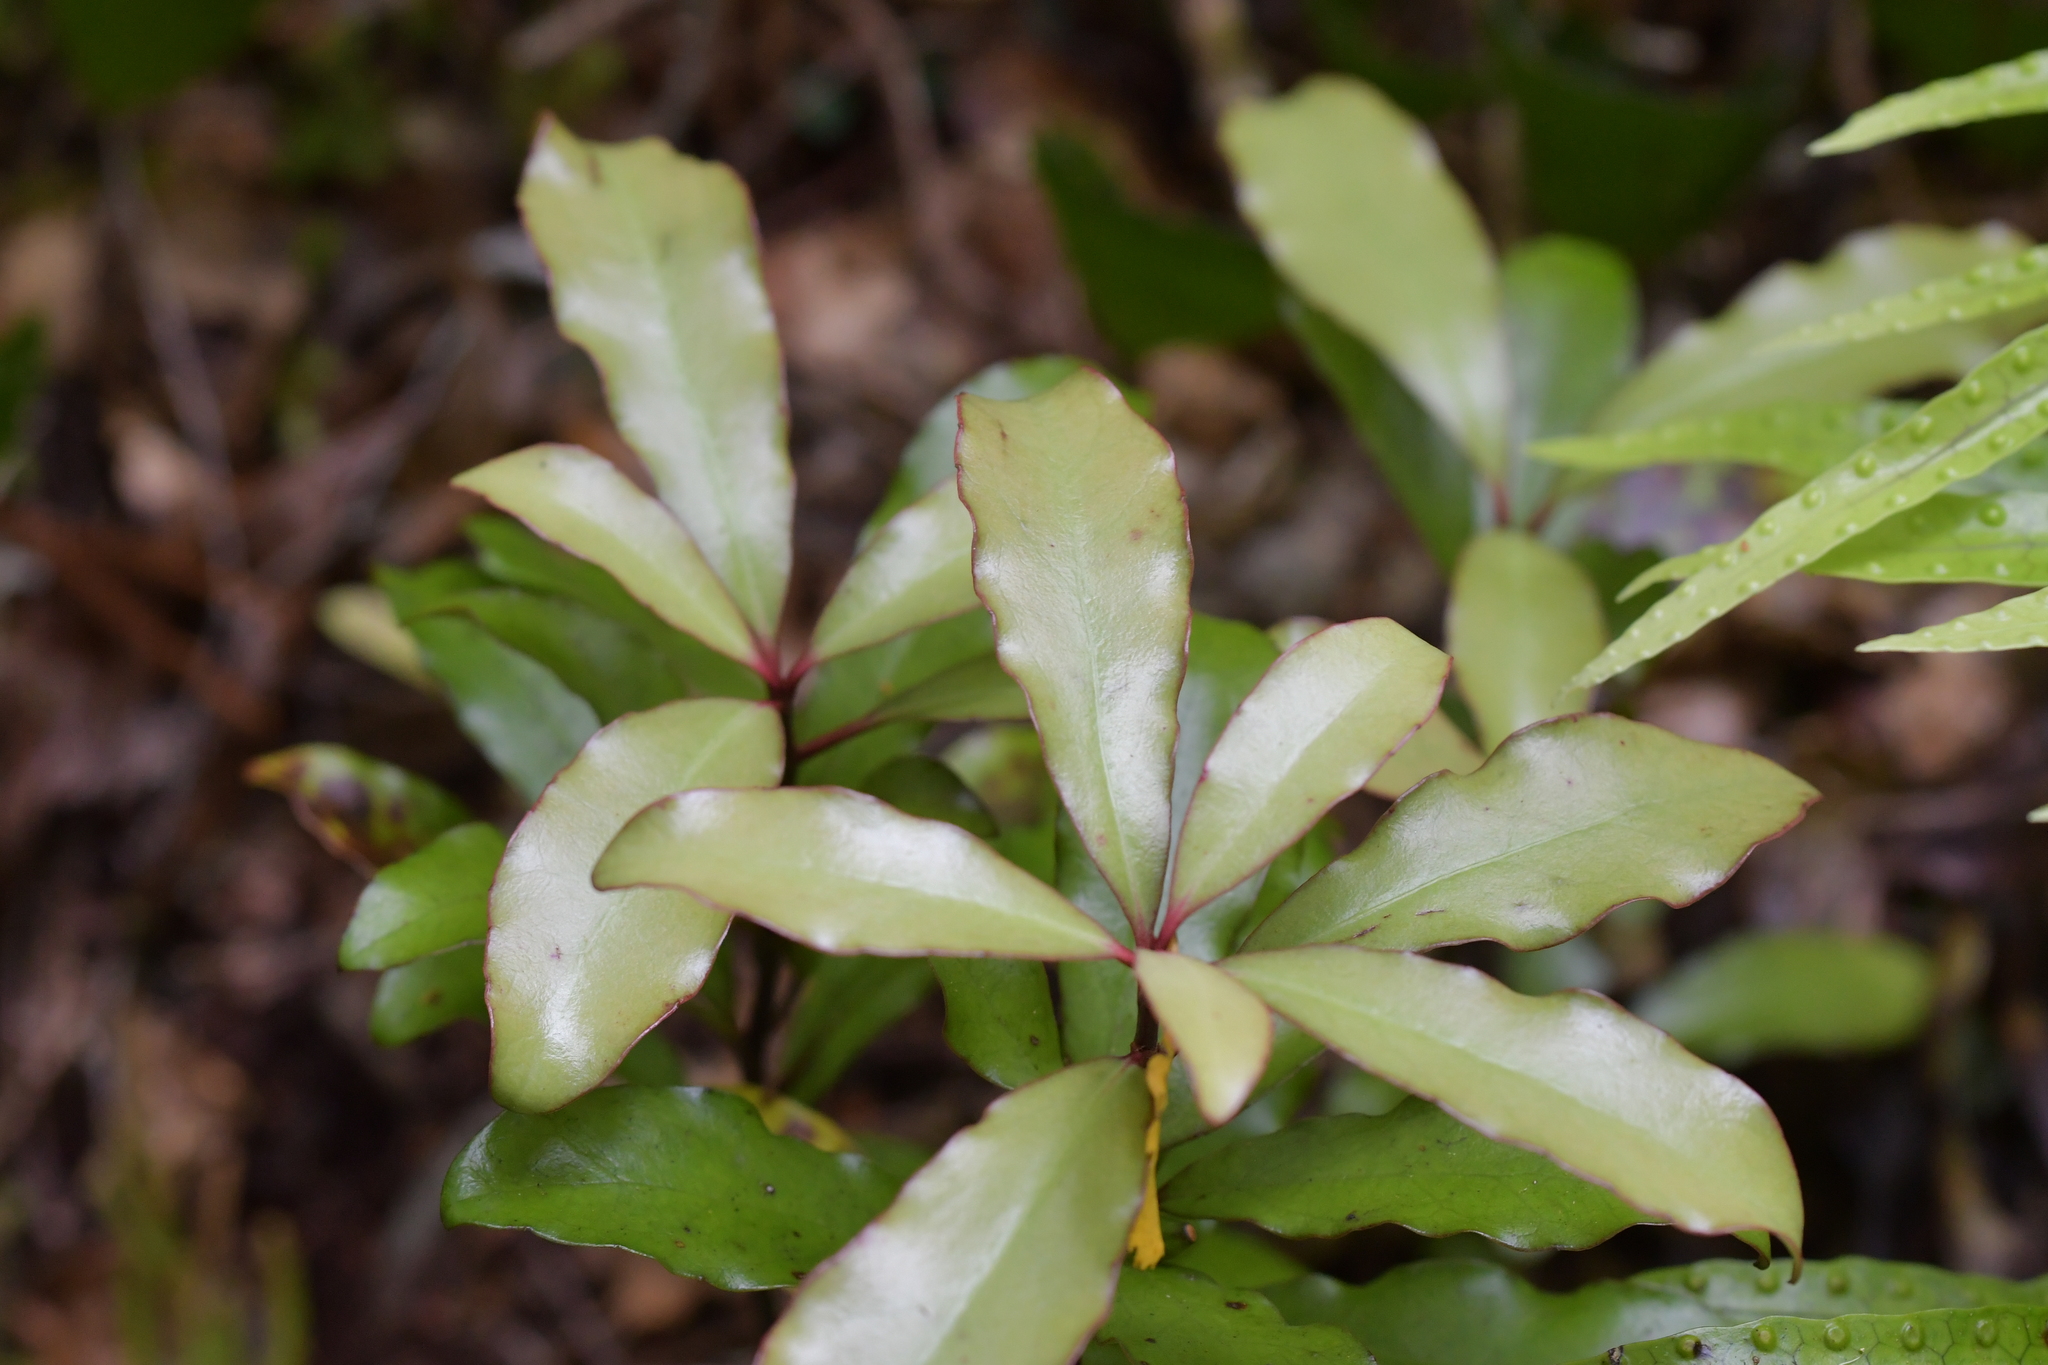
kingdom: Plantae
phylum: Tracheophyta
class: Magnoliopsida
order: Asterales
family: Alseuosmiaceae
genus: Alseuosmia
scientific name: Alseuosmia pusilla
